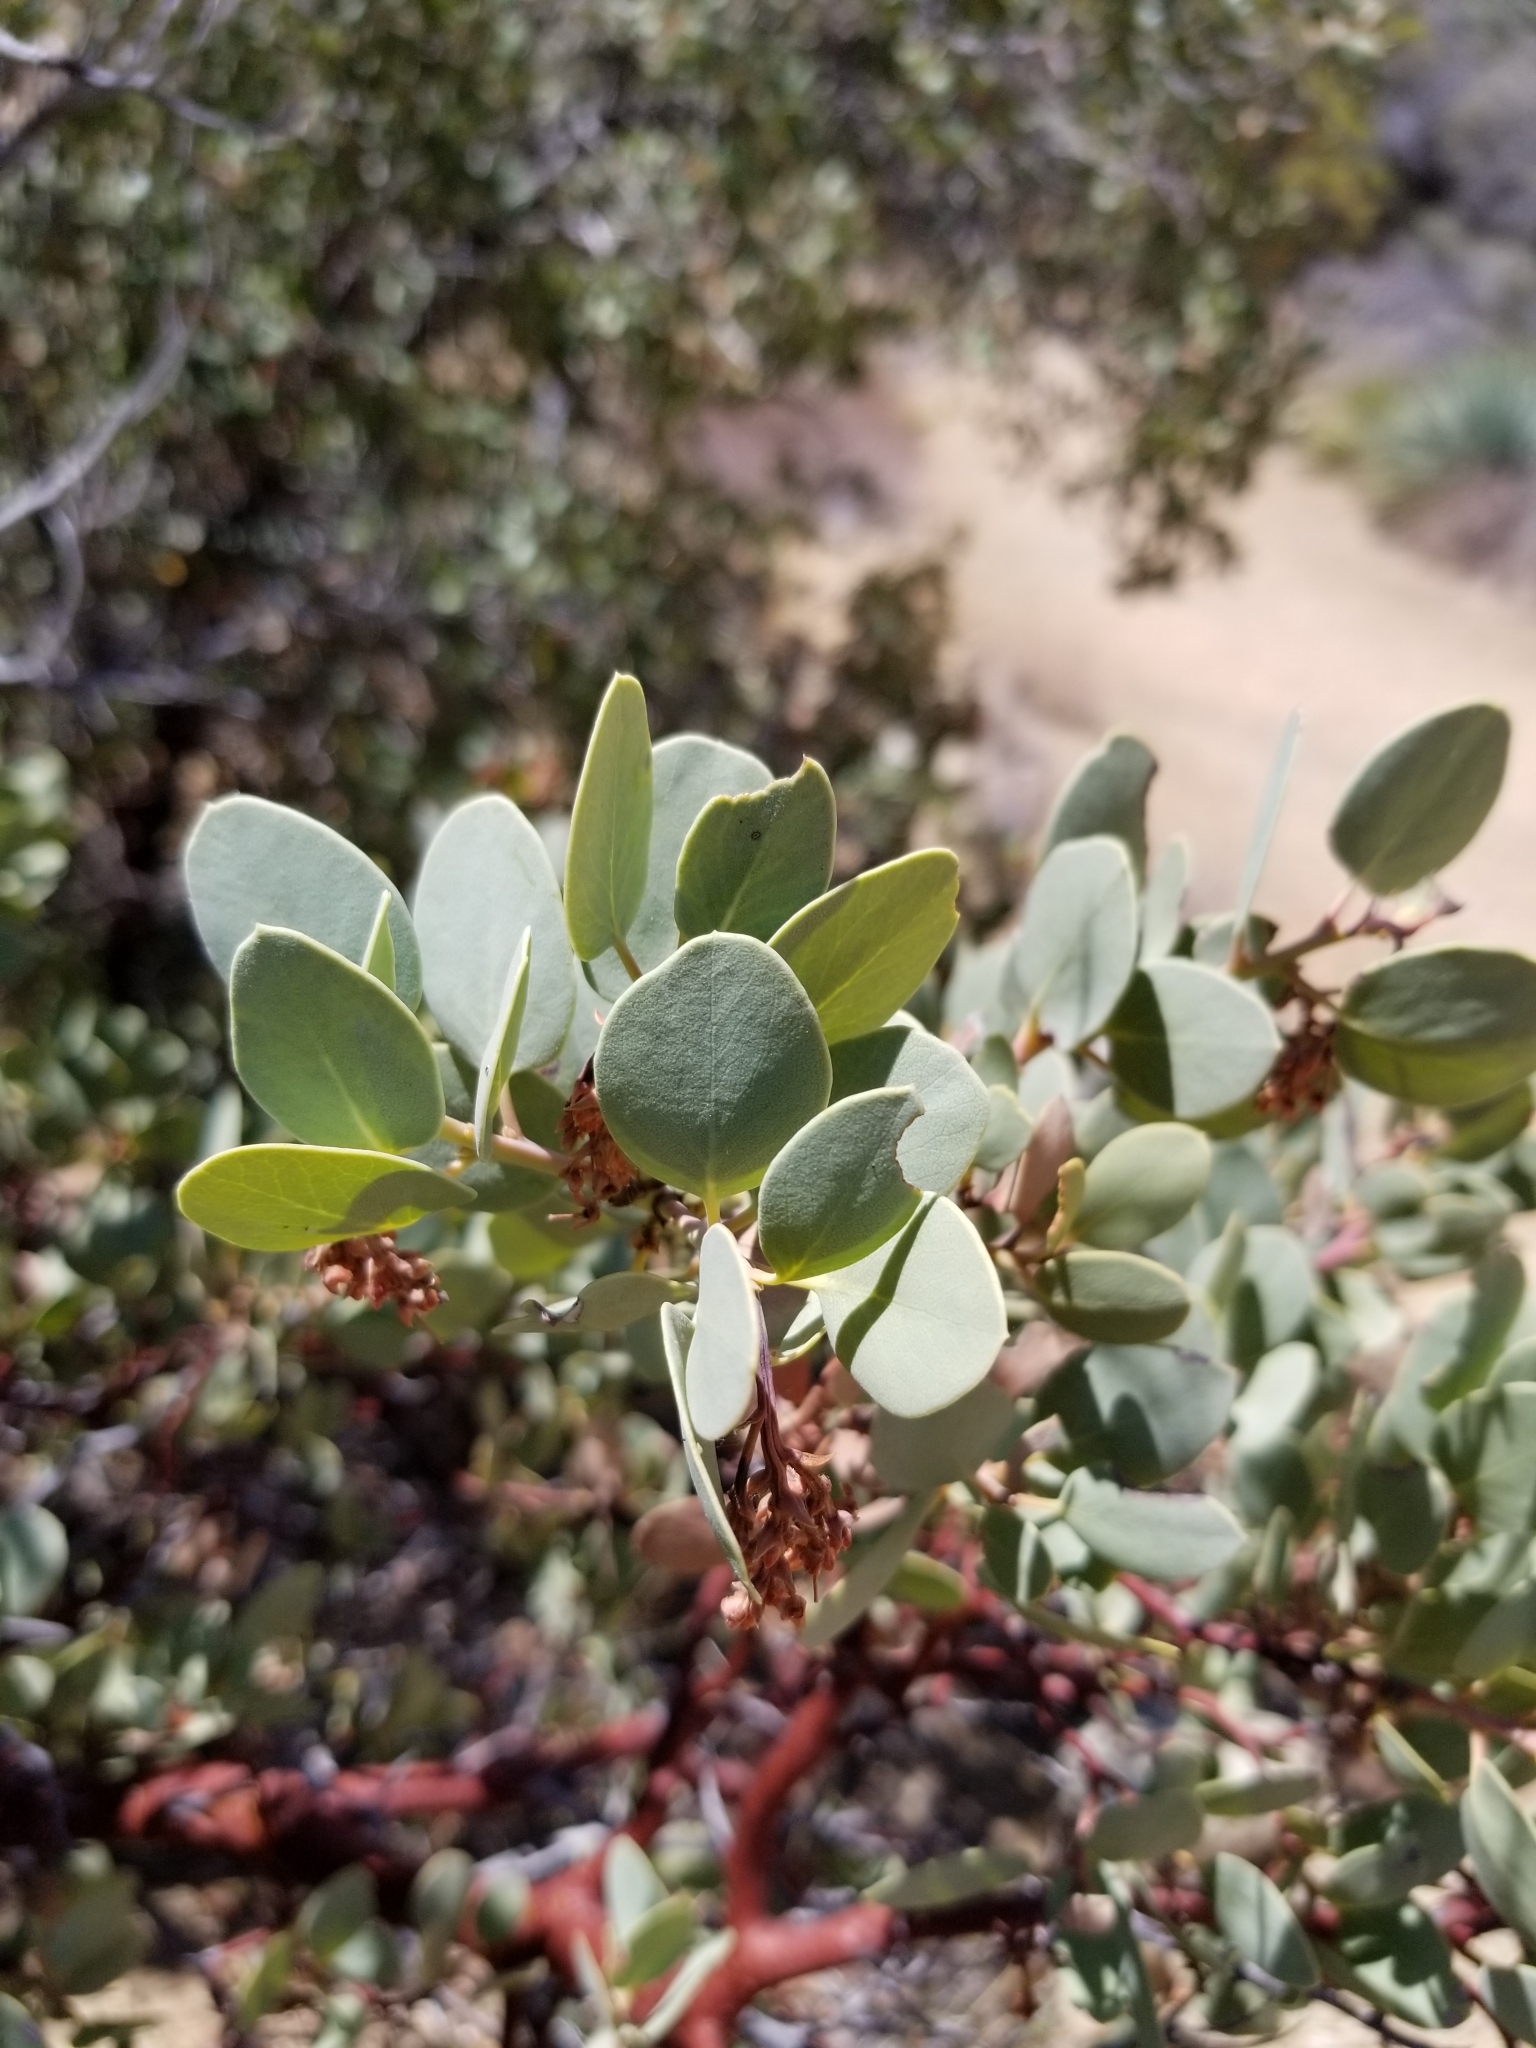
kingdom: Plantae
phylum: Tracheophyta
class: Magnoliopsida
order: Ericales
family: Ericaceae
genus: Arctostaphylos
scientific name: Arctostaphylos glauca
